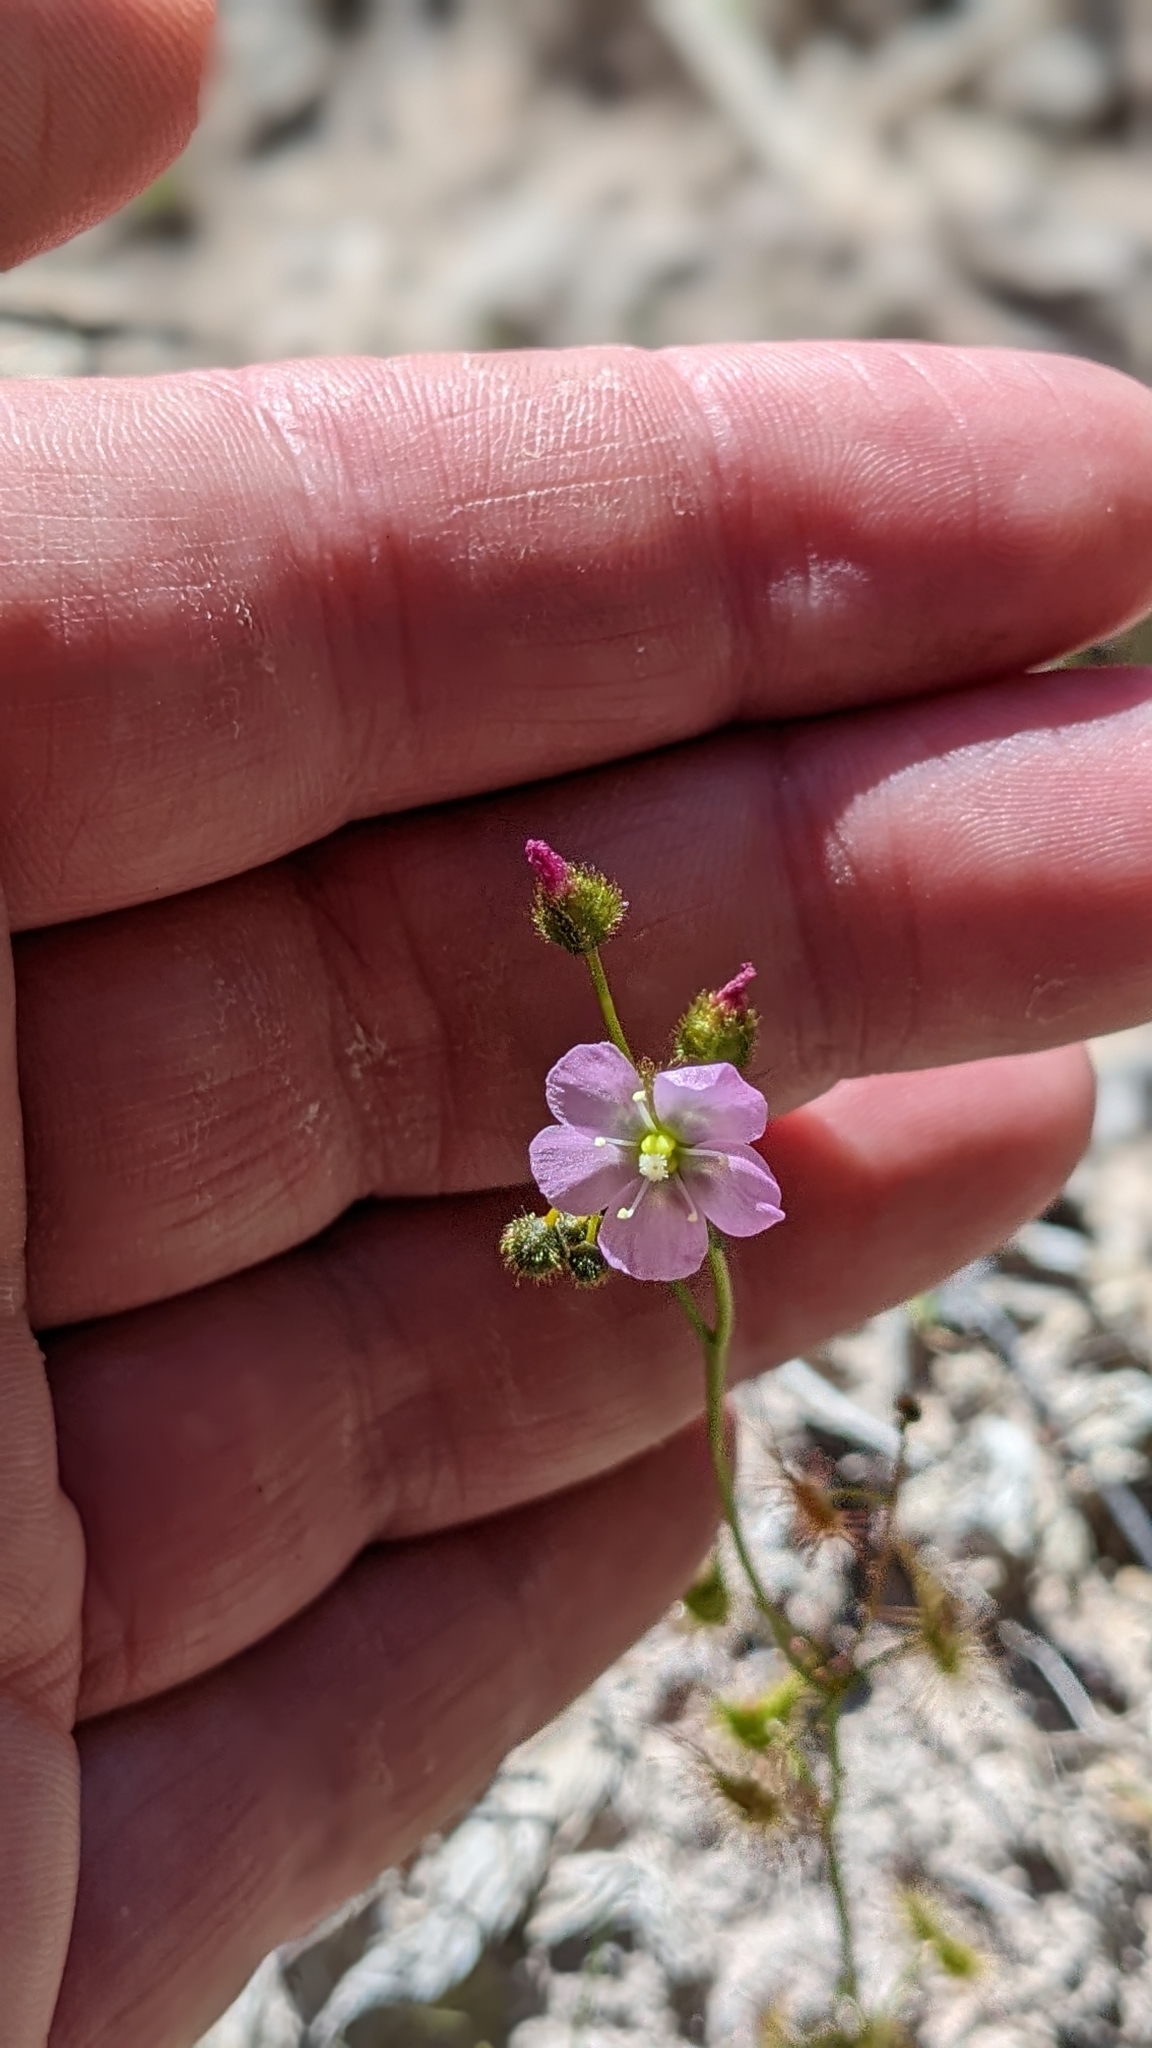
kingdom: Plantae
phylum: Tracheophyta
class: Magnoliopsida
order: Caryophyllales
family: Droseraceae
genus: Drosera
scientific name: Drosera gunniana
